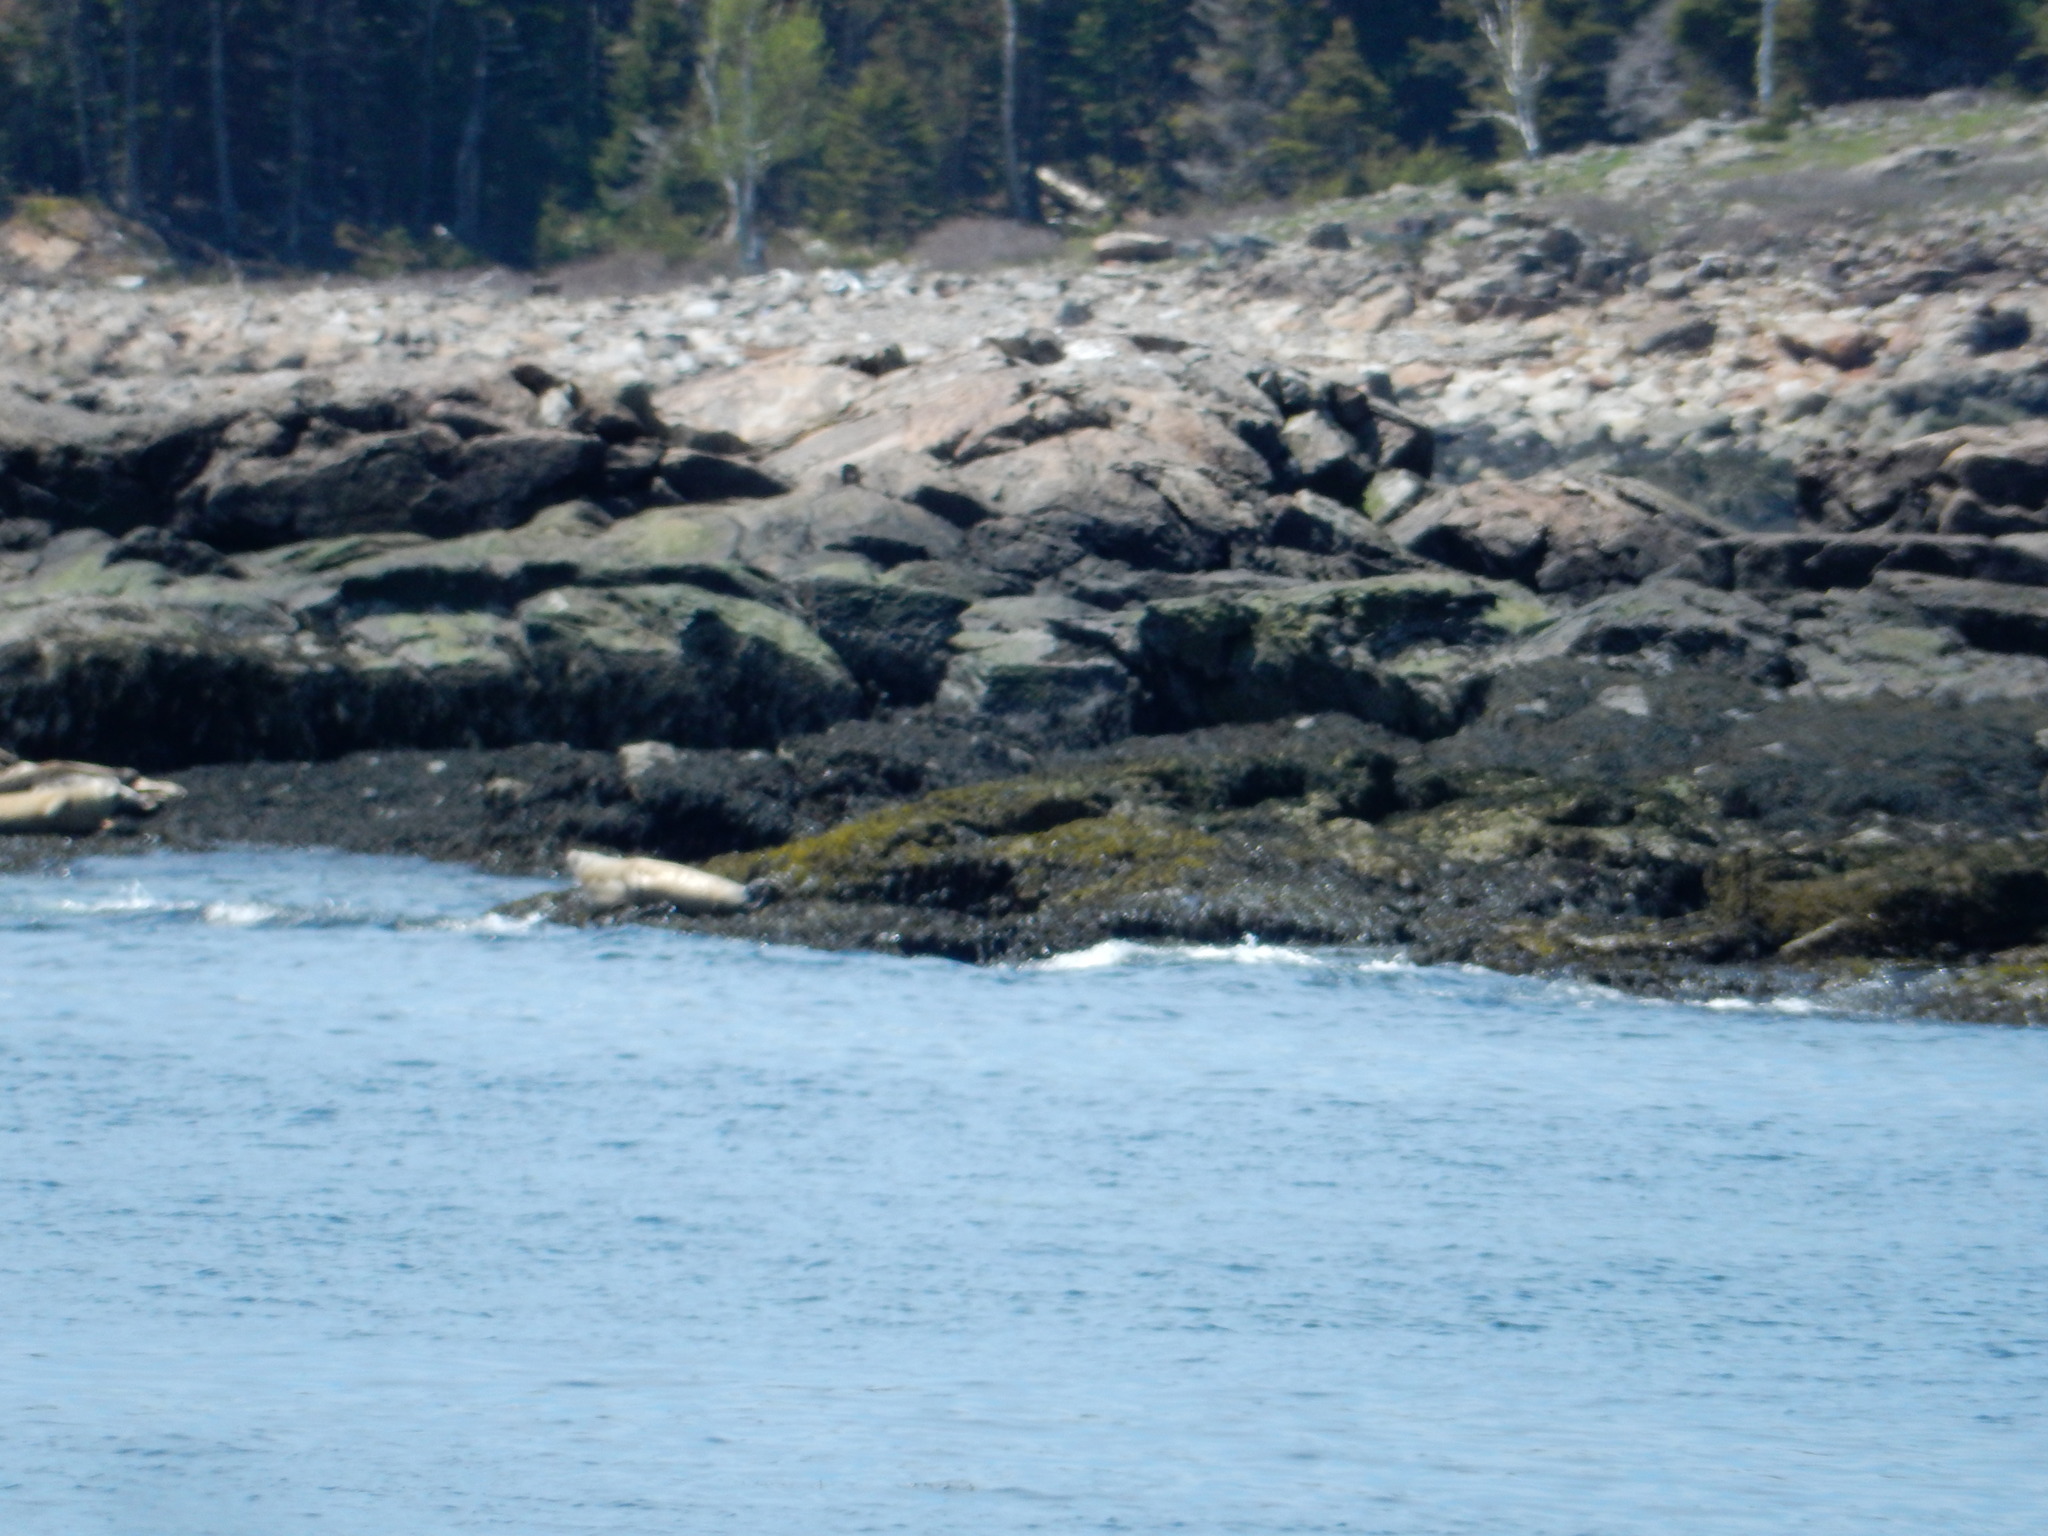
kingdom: Animalia
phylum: Chordata
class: Mammalia
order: Carnivora
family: Phocidae
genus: Phoca
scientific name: Phoca vitulina
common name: Harbor seal
